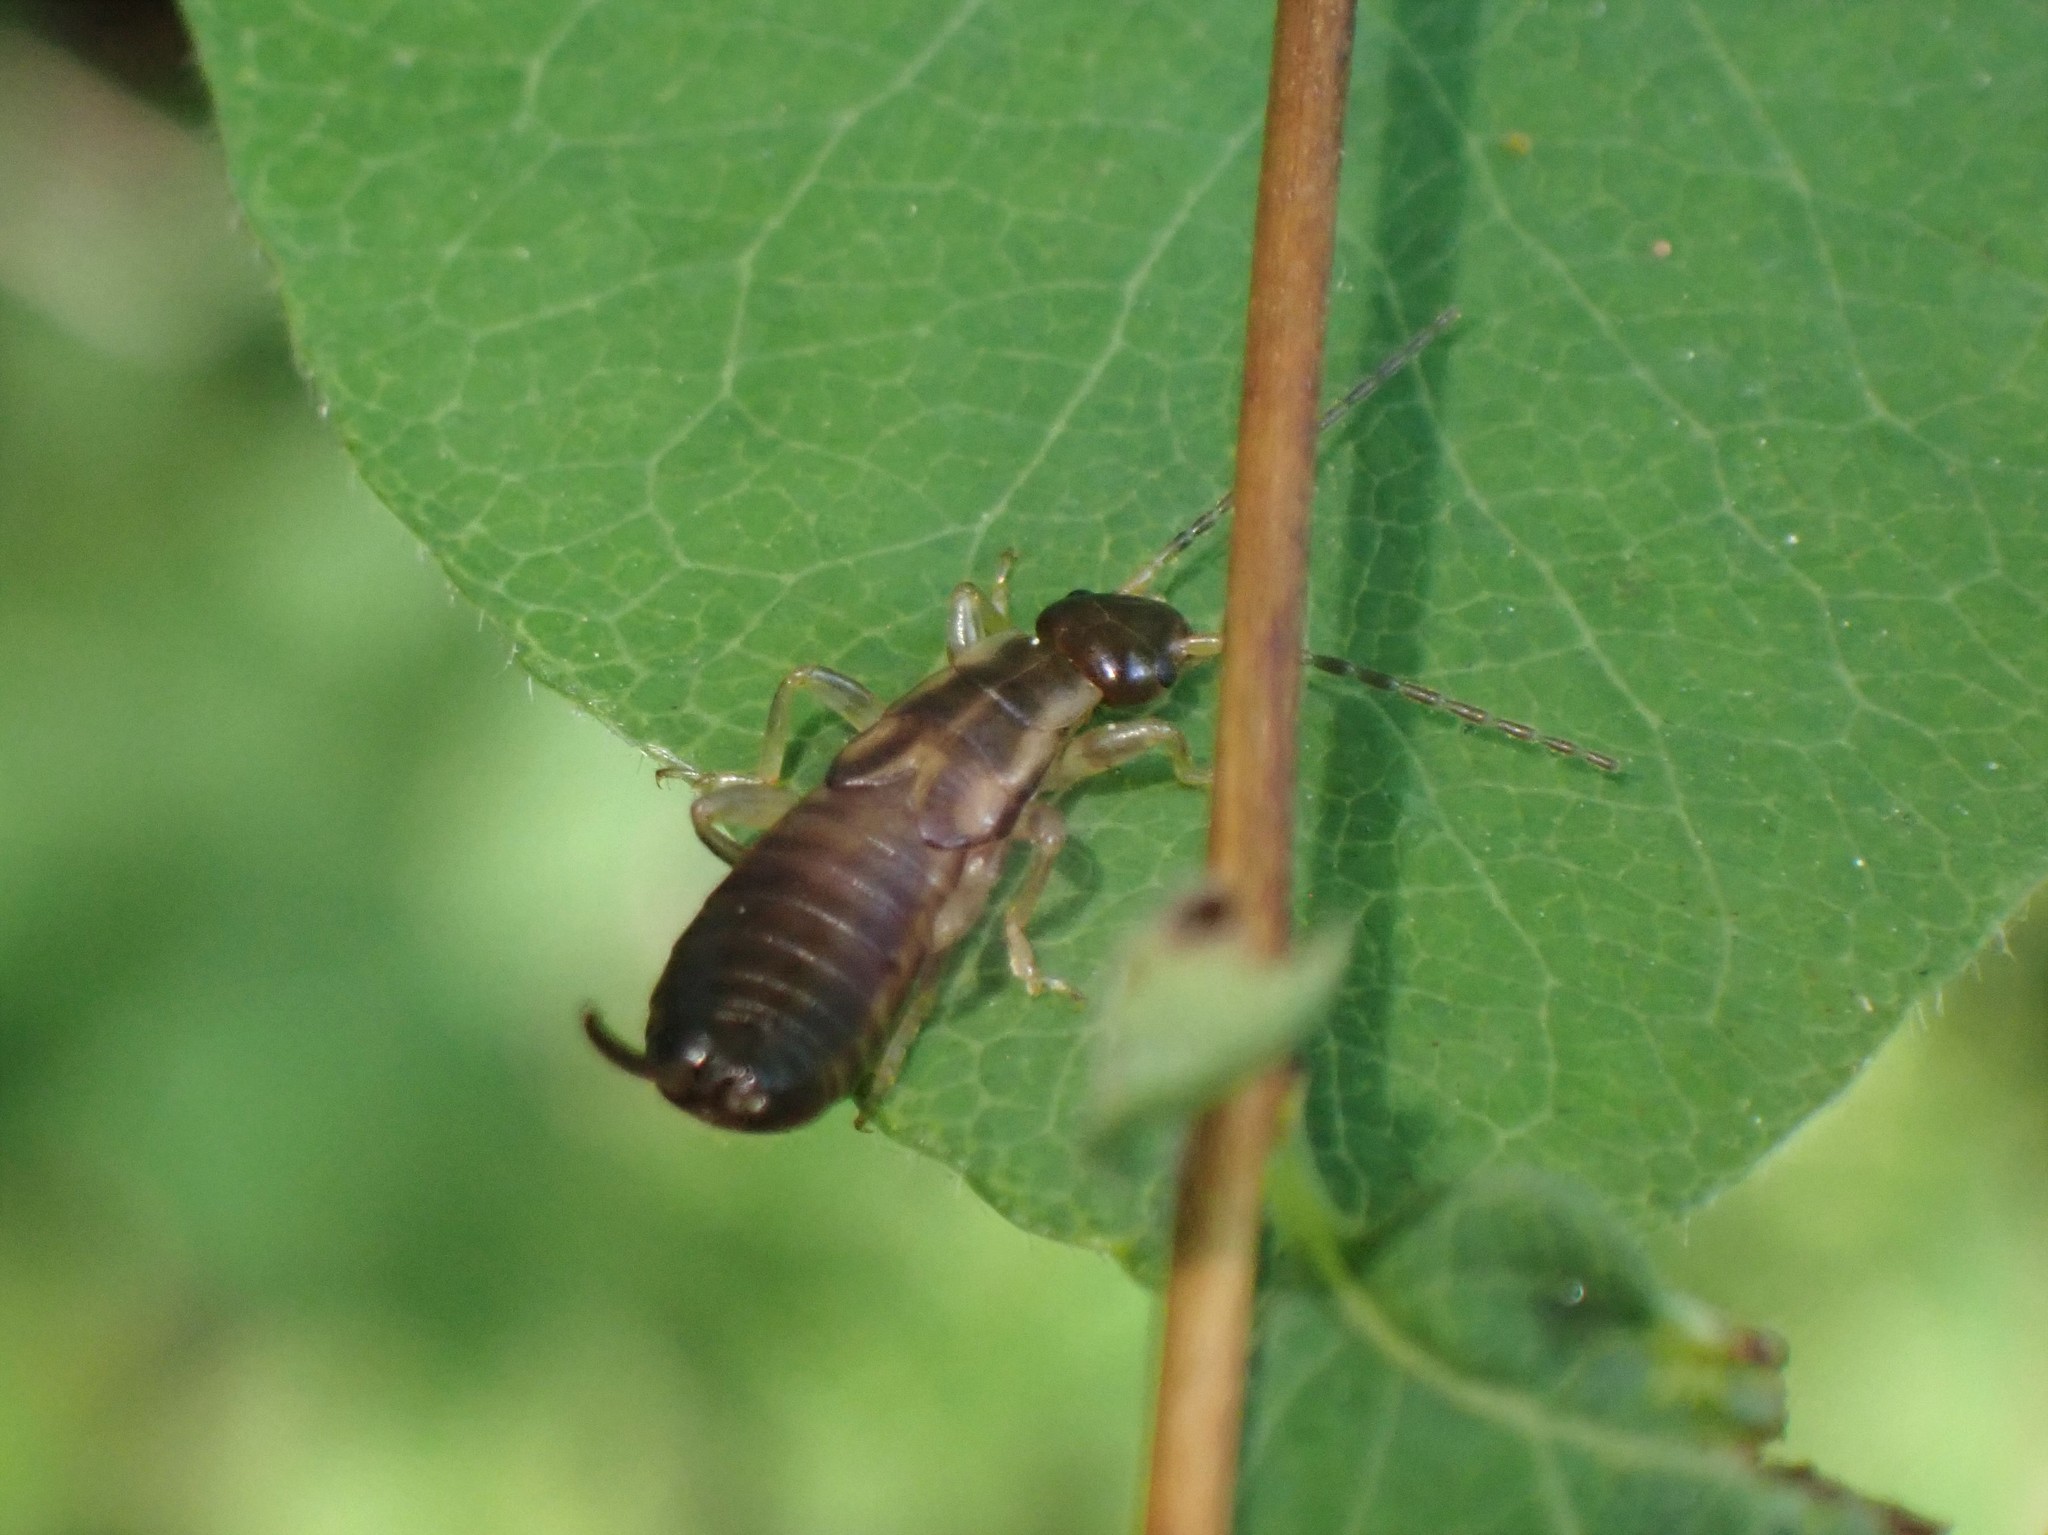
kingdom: Animalia
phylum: Arthropoda
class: Insecta
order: Dermaptera
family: Forficulidae
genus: Forficula
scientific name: Forficula
